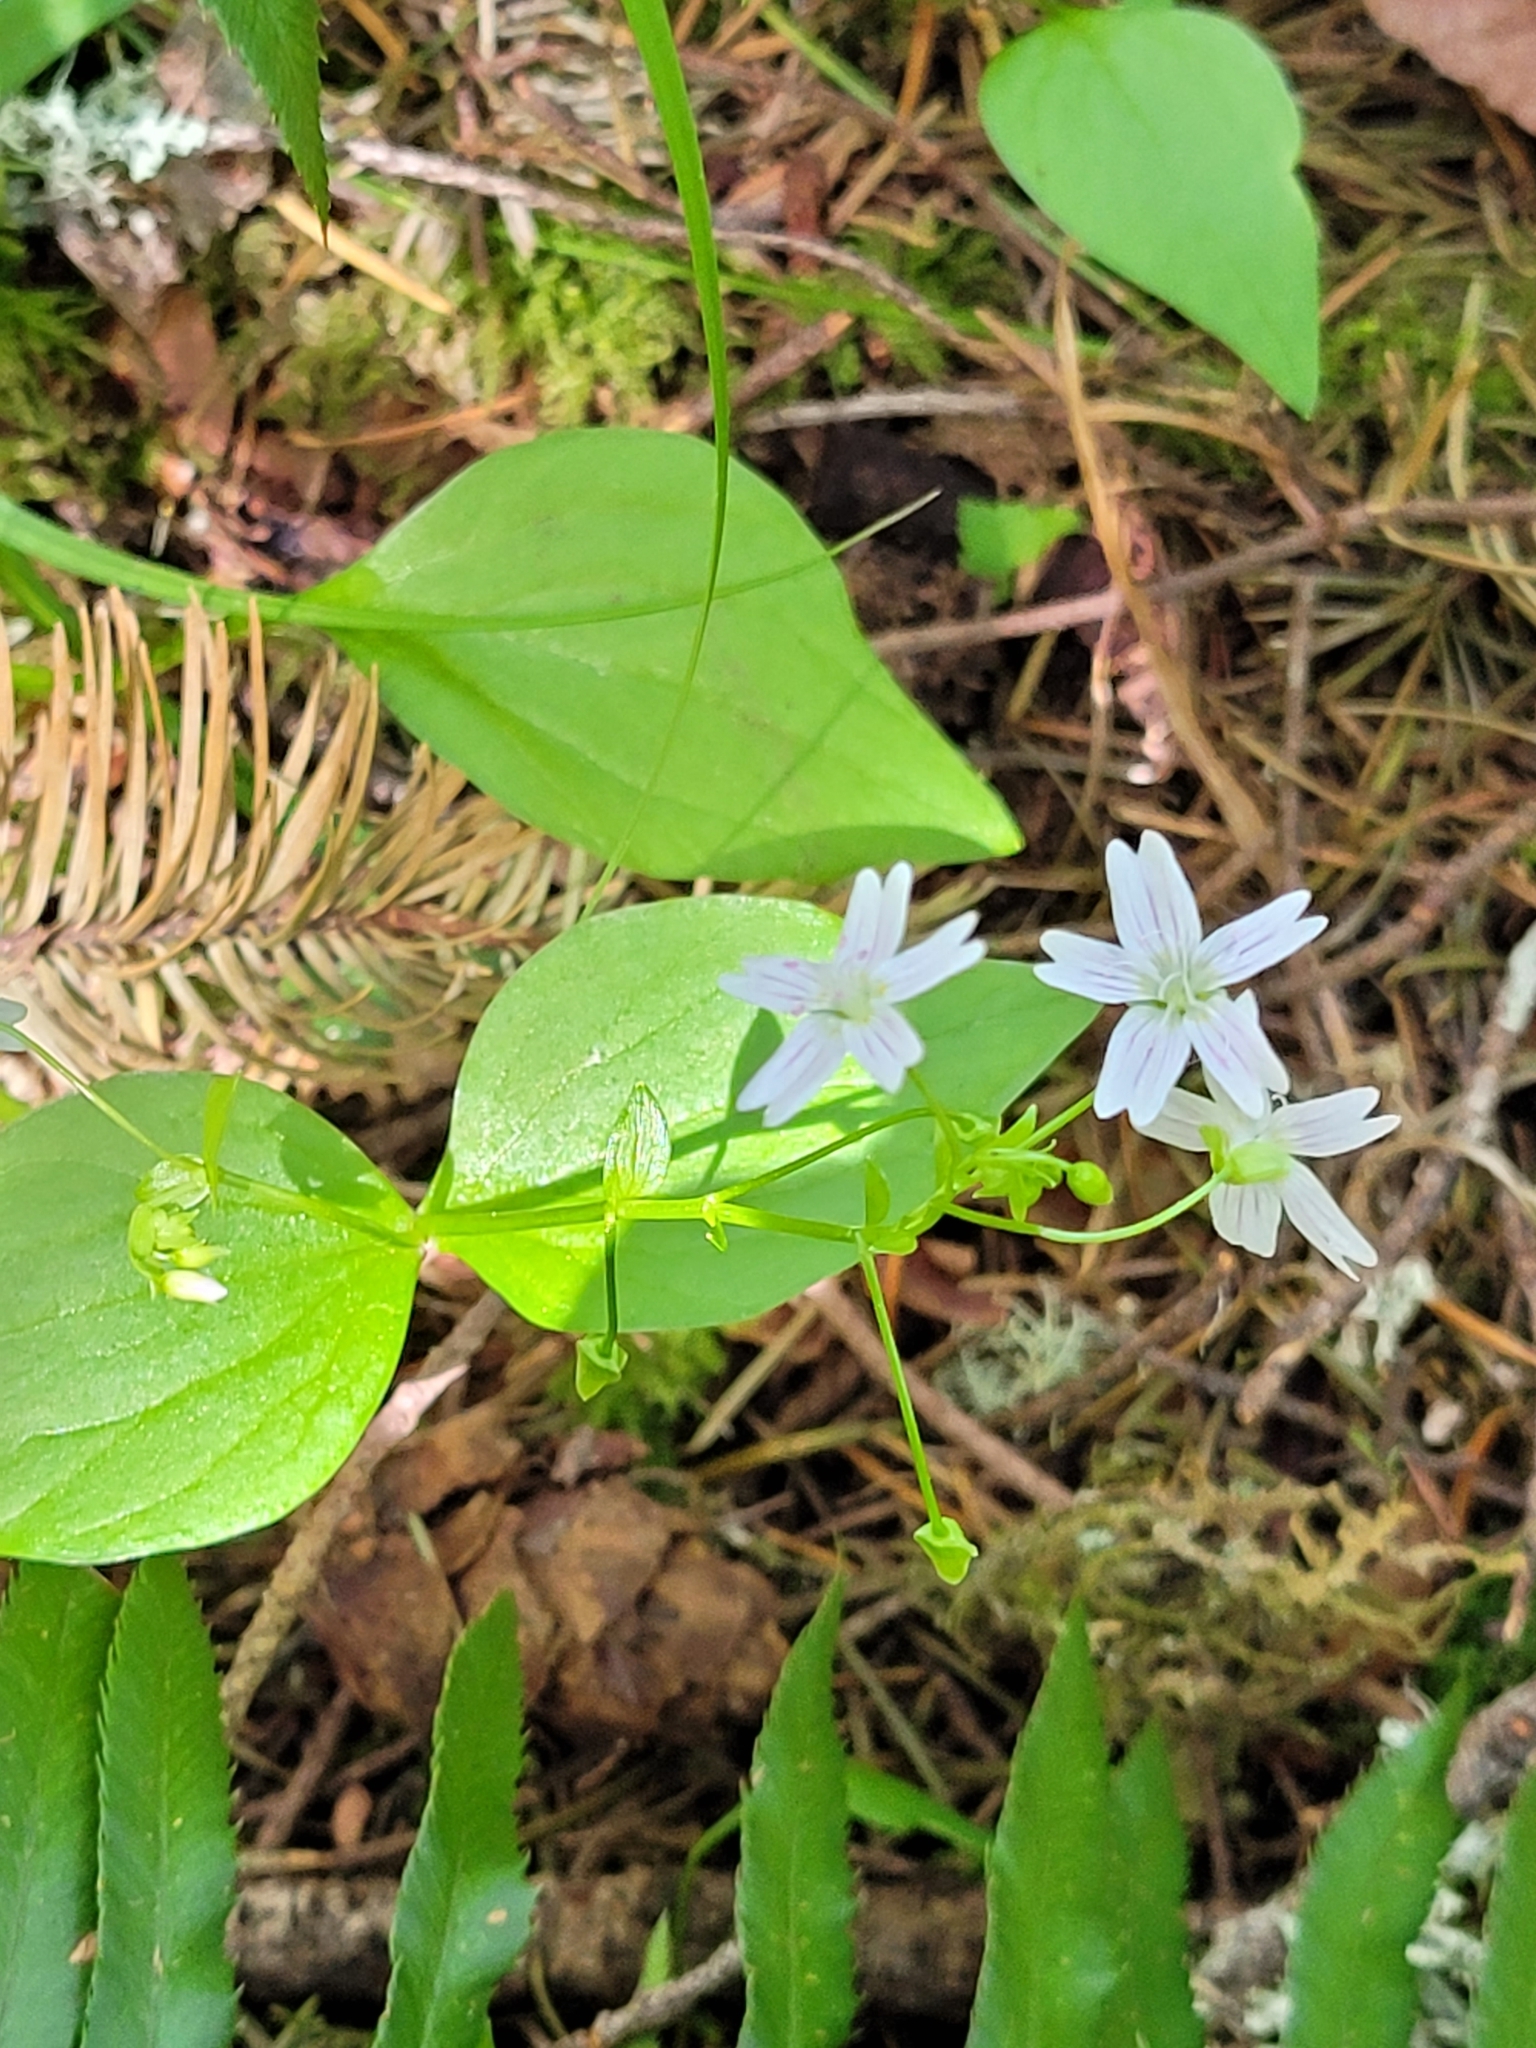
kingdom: Plantae
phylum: Tracheophyta
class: Magnoliopsida
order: Caryophyllales
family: Montiaceae
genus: Claytonia
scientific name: Claytonia sibirica
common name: Pink purslane
